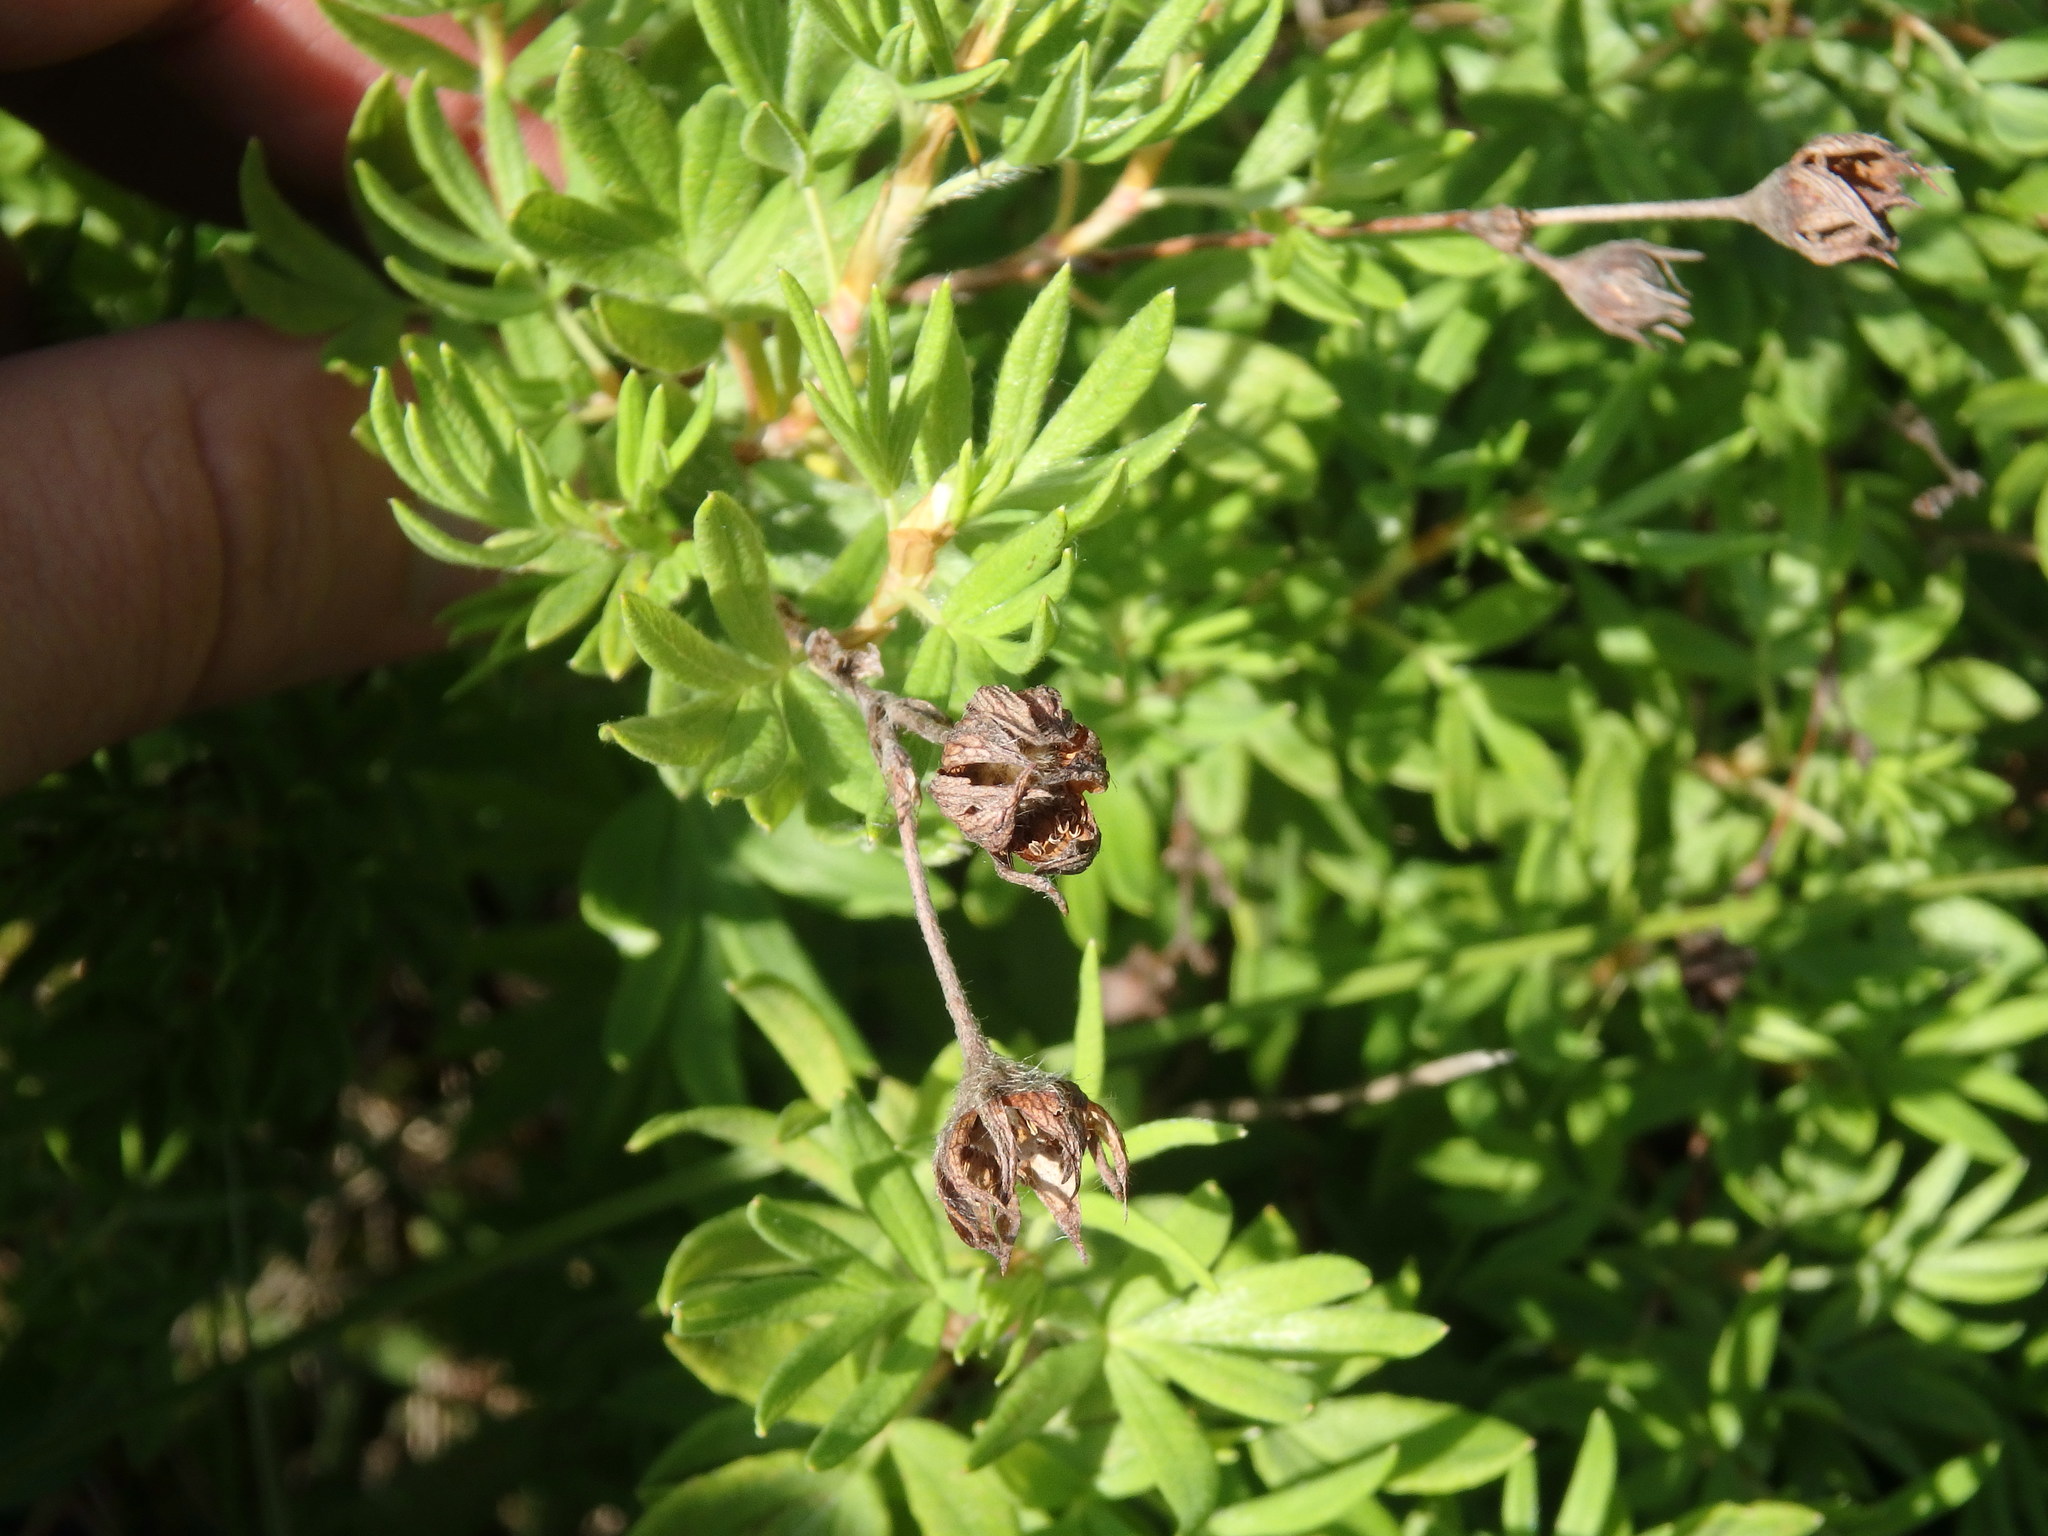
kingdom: Plantae
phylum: Tracheophyta
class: Magnoliopsida
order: Rosales
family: Rosaceae
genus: Dasiphora
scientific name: Dasiphora fruticosa
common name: Shrubby cinquefoil
